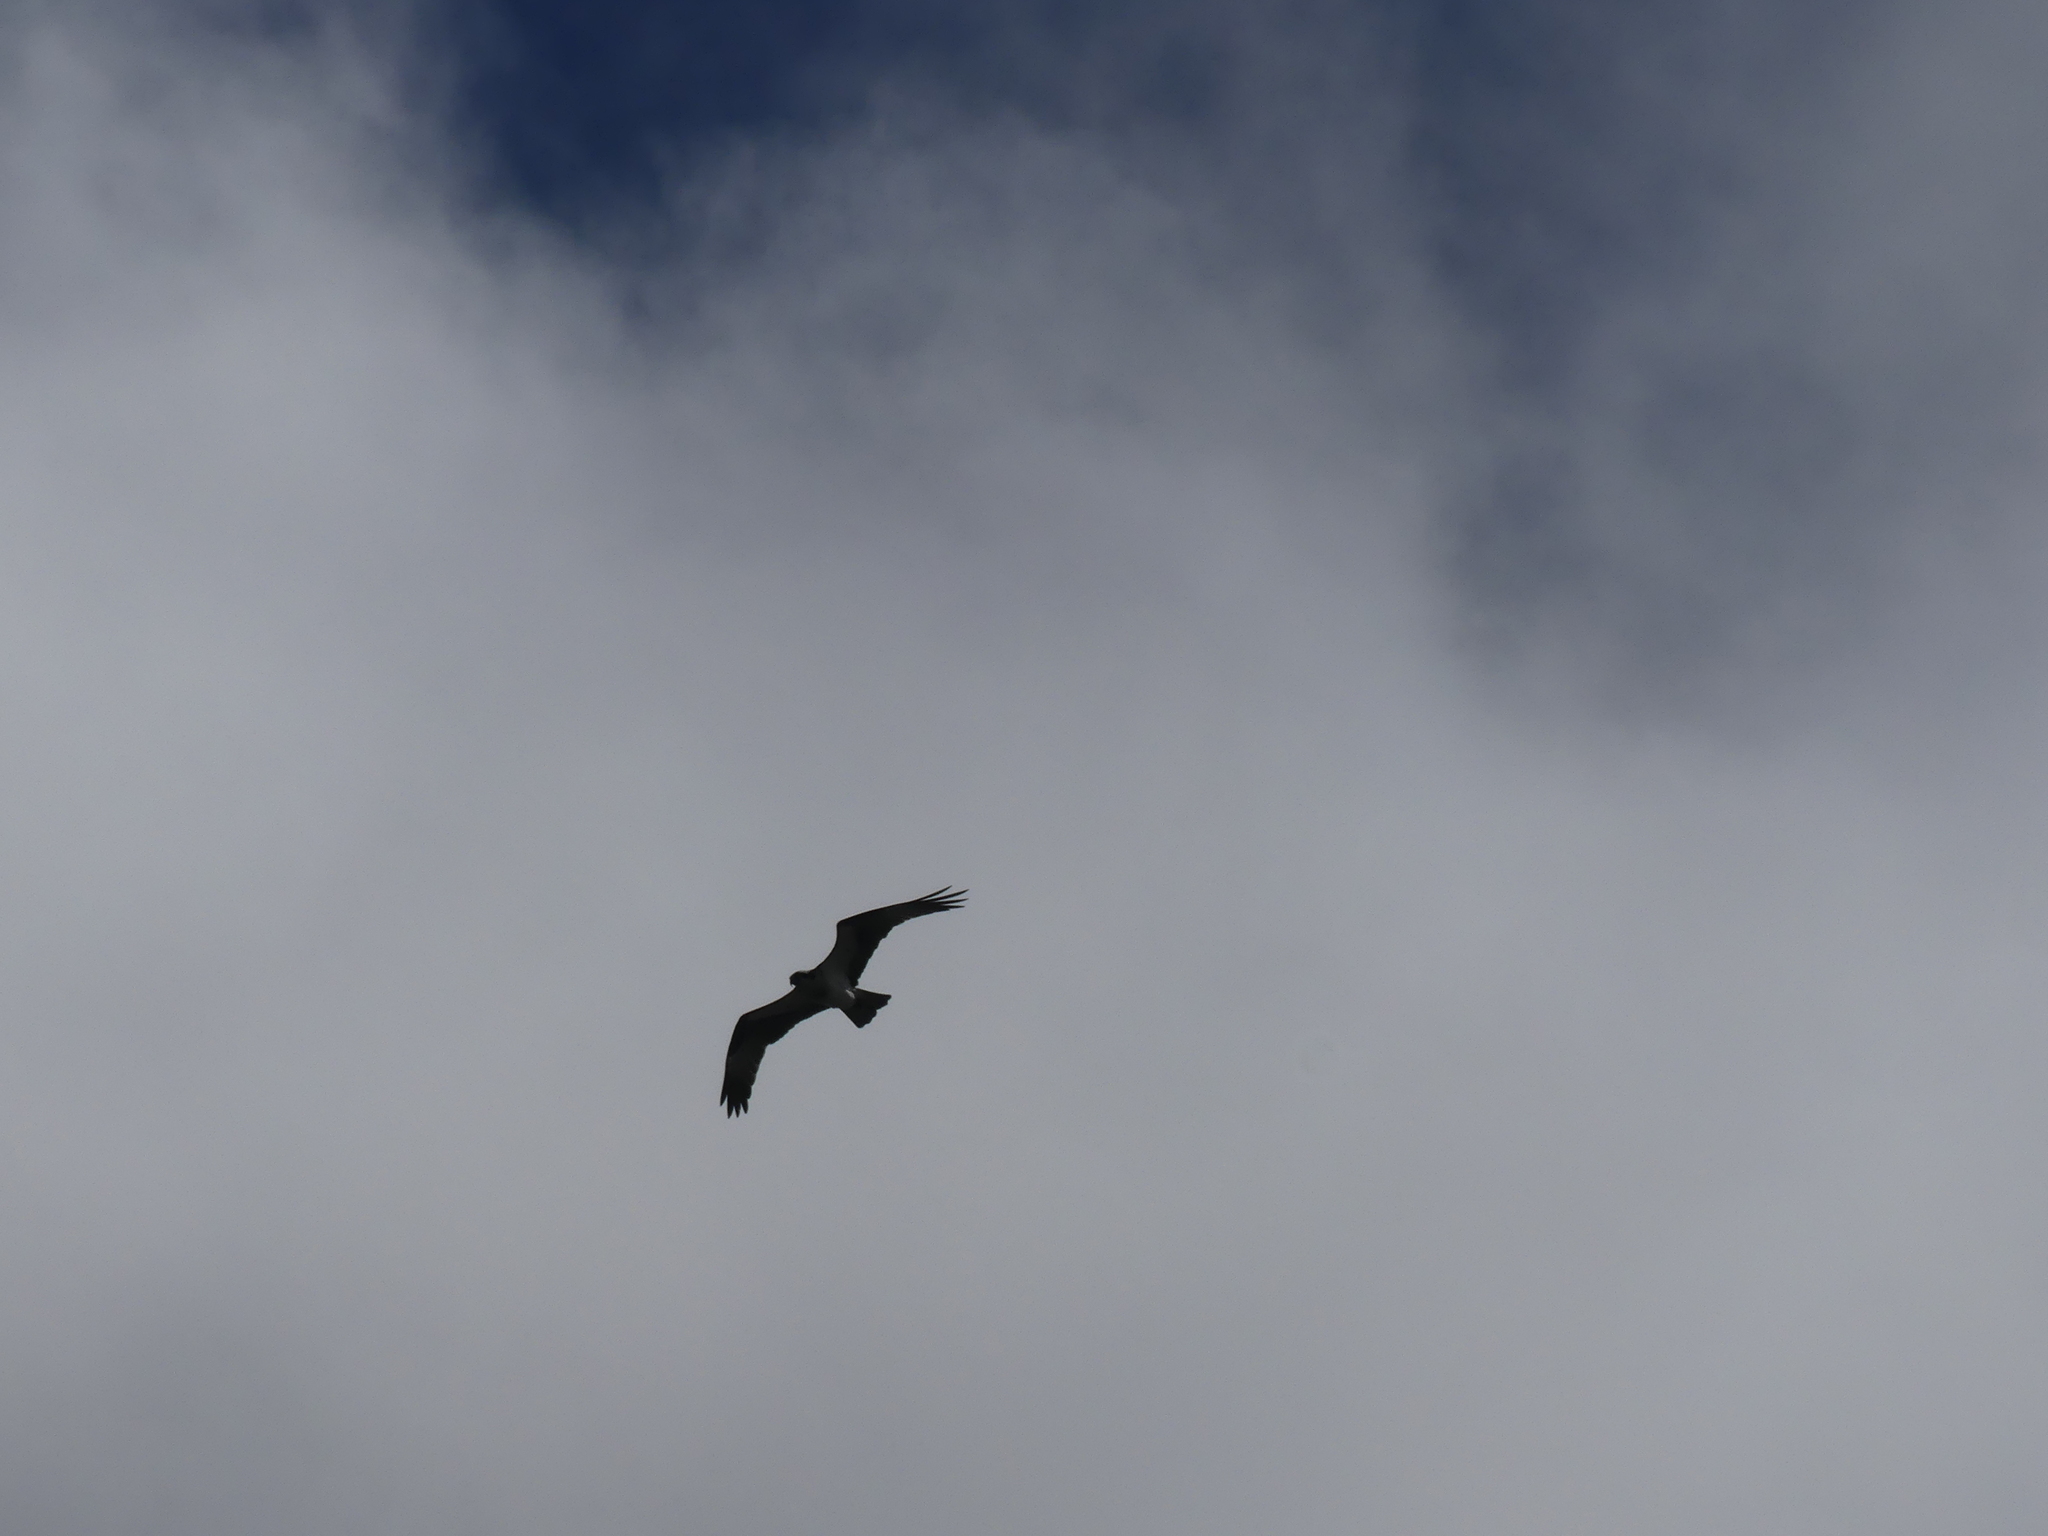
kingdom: Animalia
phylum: Chordata
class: Aves
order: Accipitriformes
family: Pandionidae
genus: Pandion
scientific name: Pandion haliaetus
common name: Osprey
